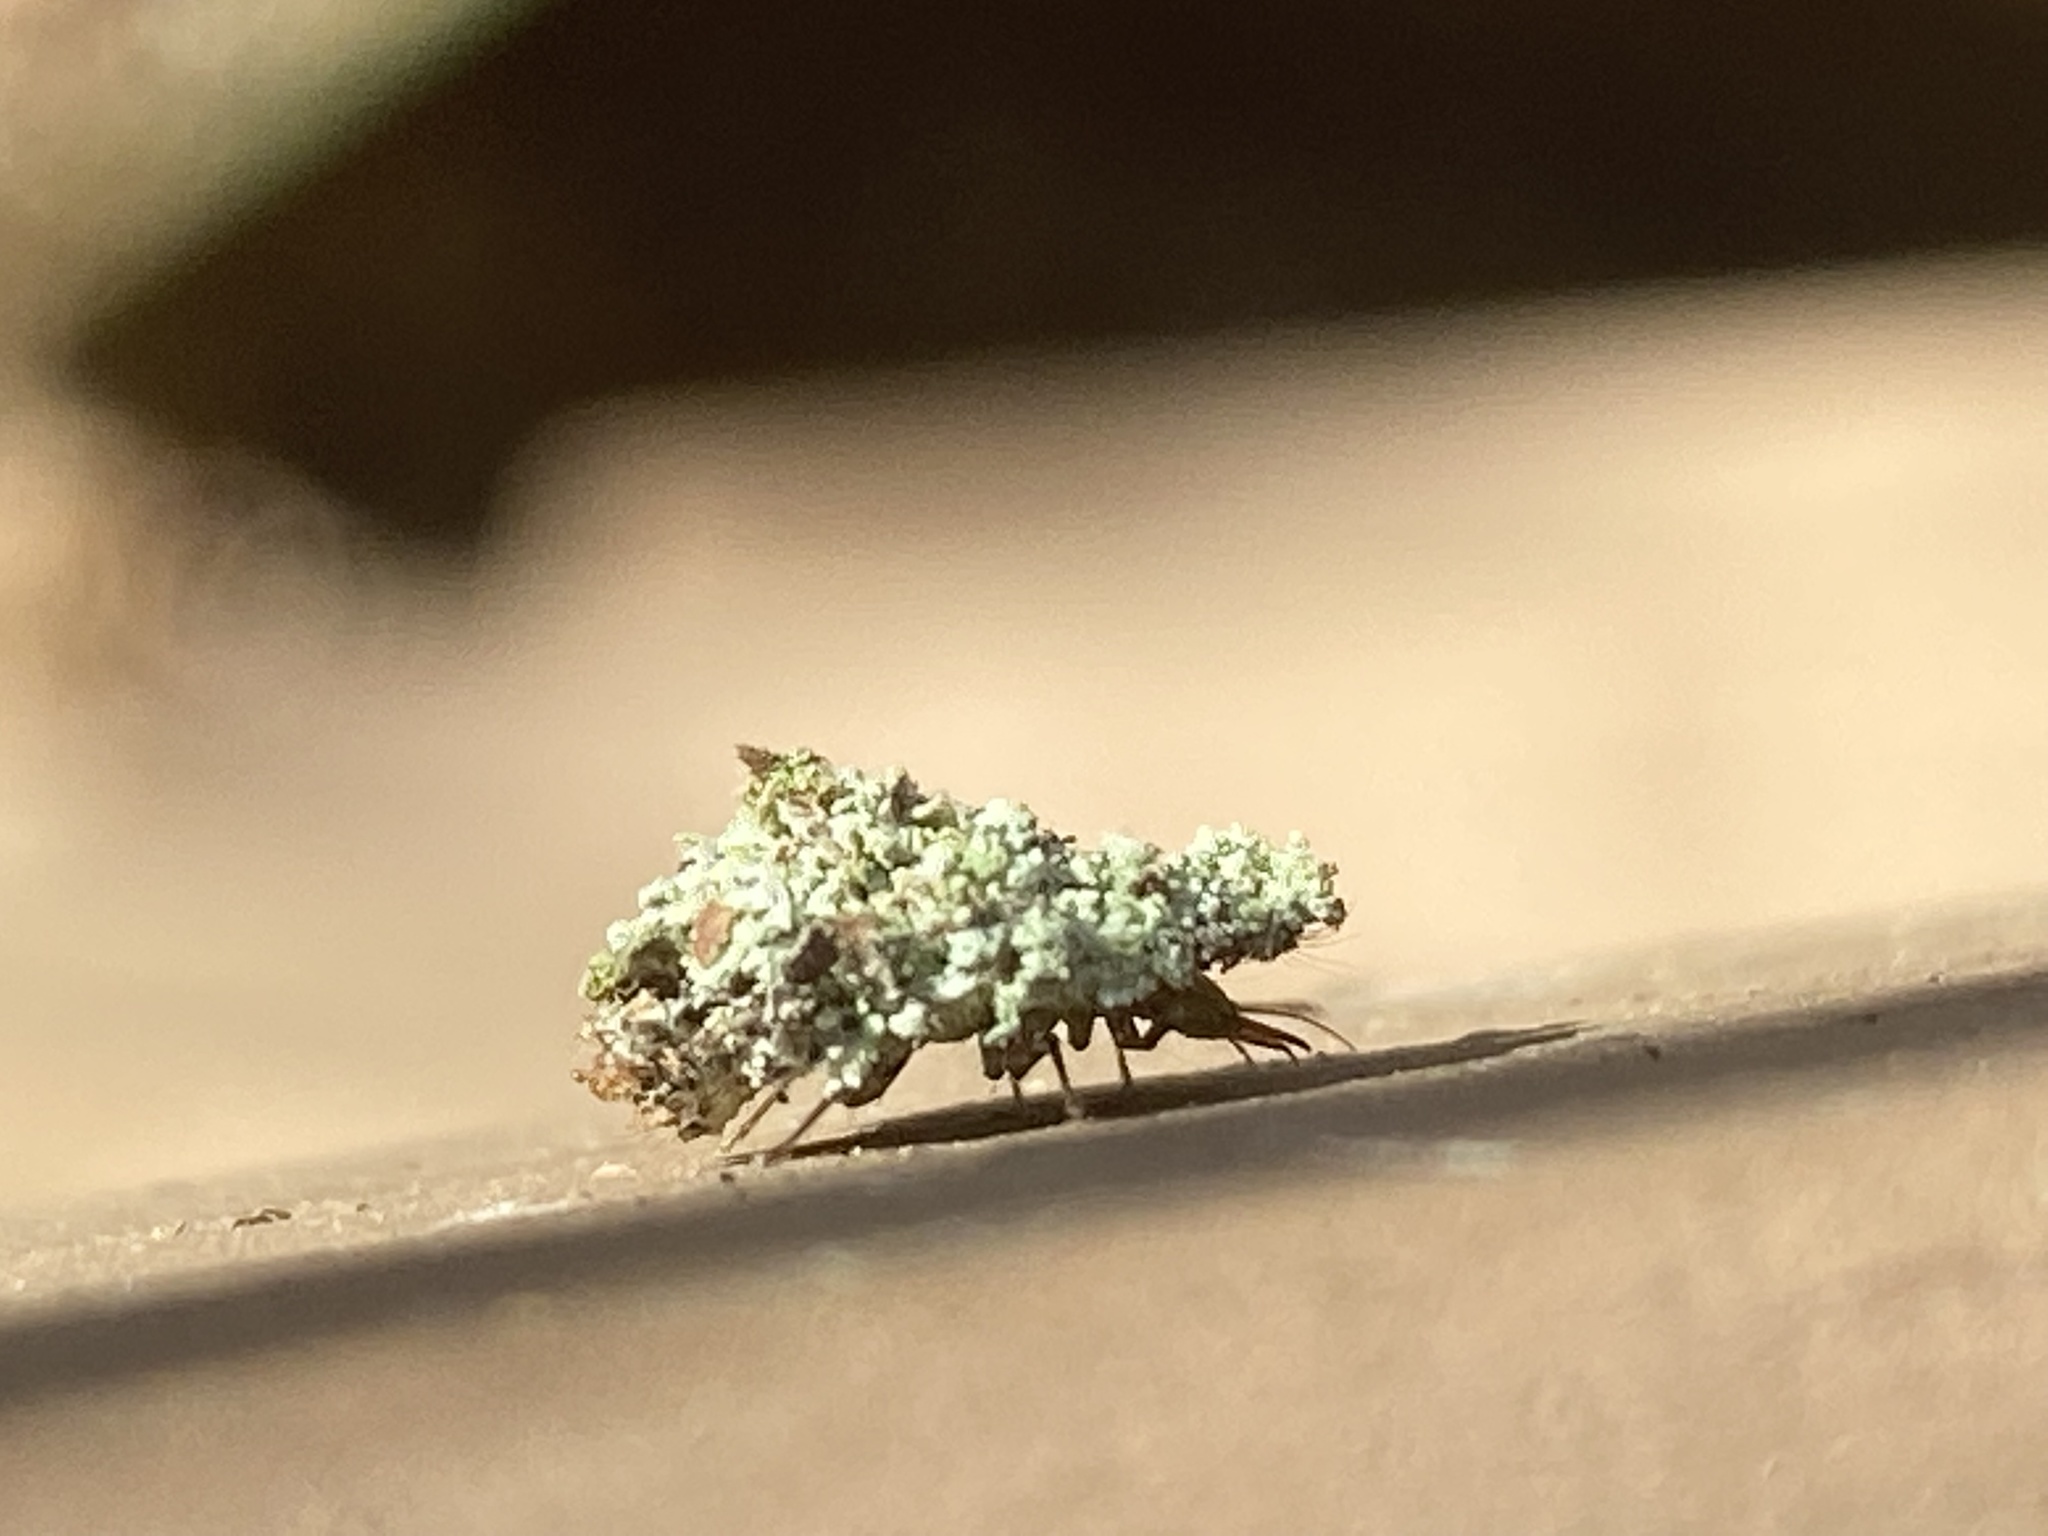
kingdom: Animalia
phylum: Arthropoda
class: Insecta
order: Neuroptera
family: Chrysopidae
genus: Leucochrysa
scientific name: Leucochrysa pavida
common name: Lichen-carrying green lacewing
